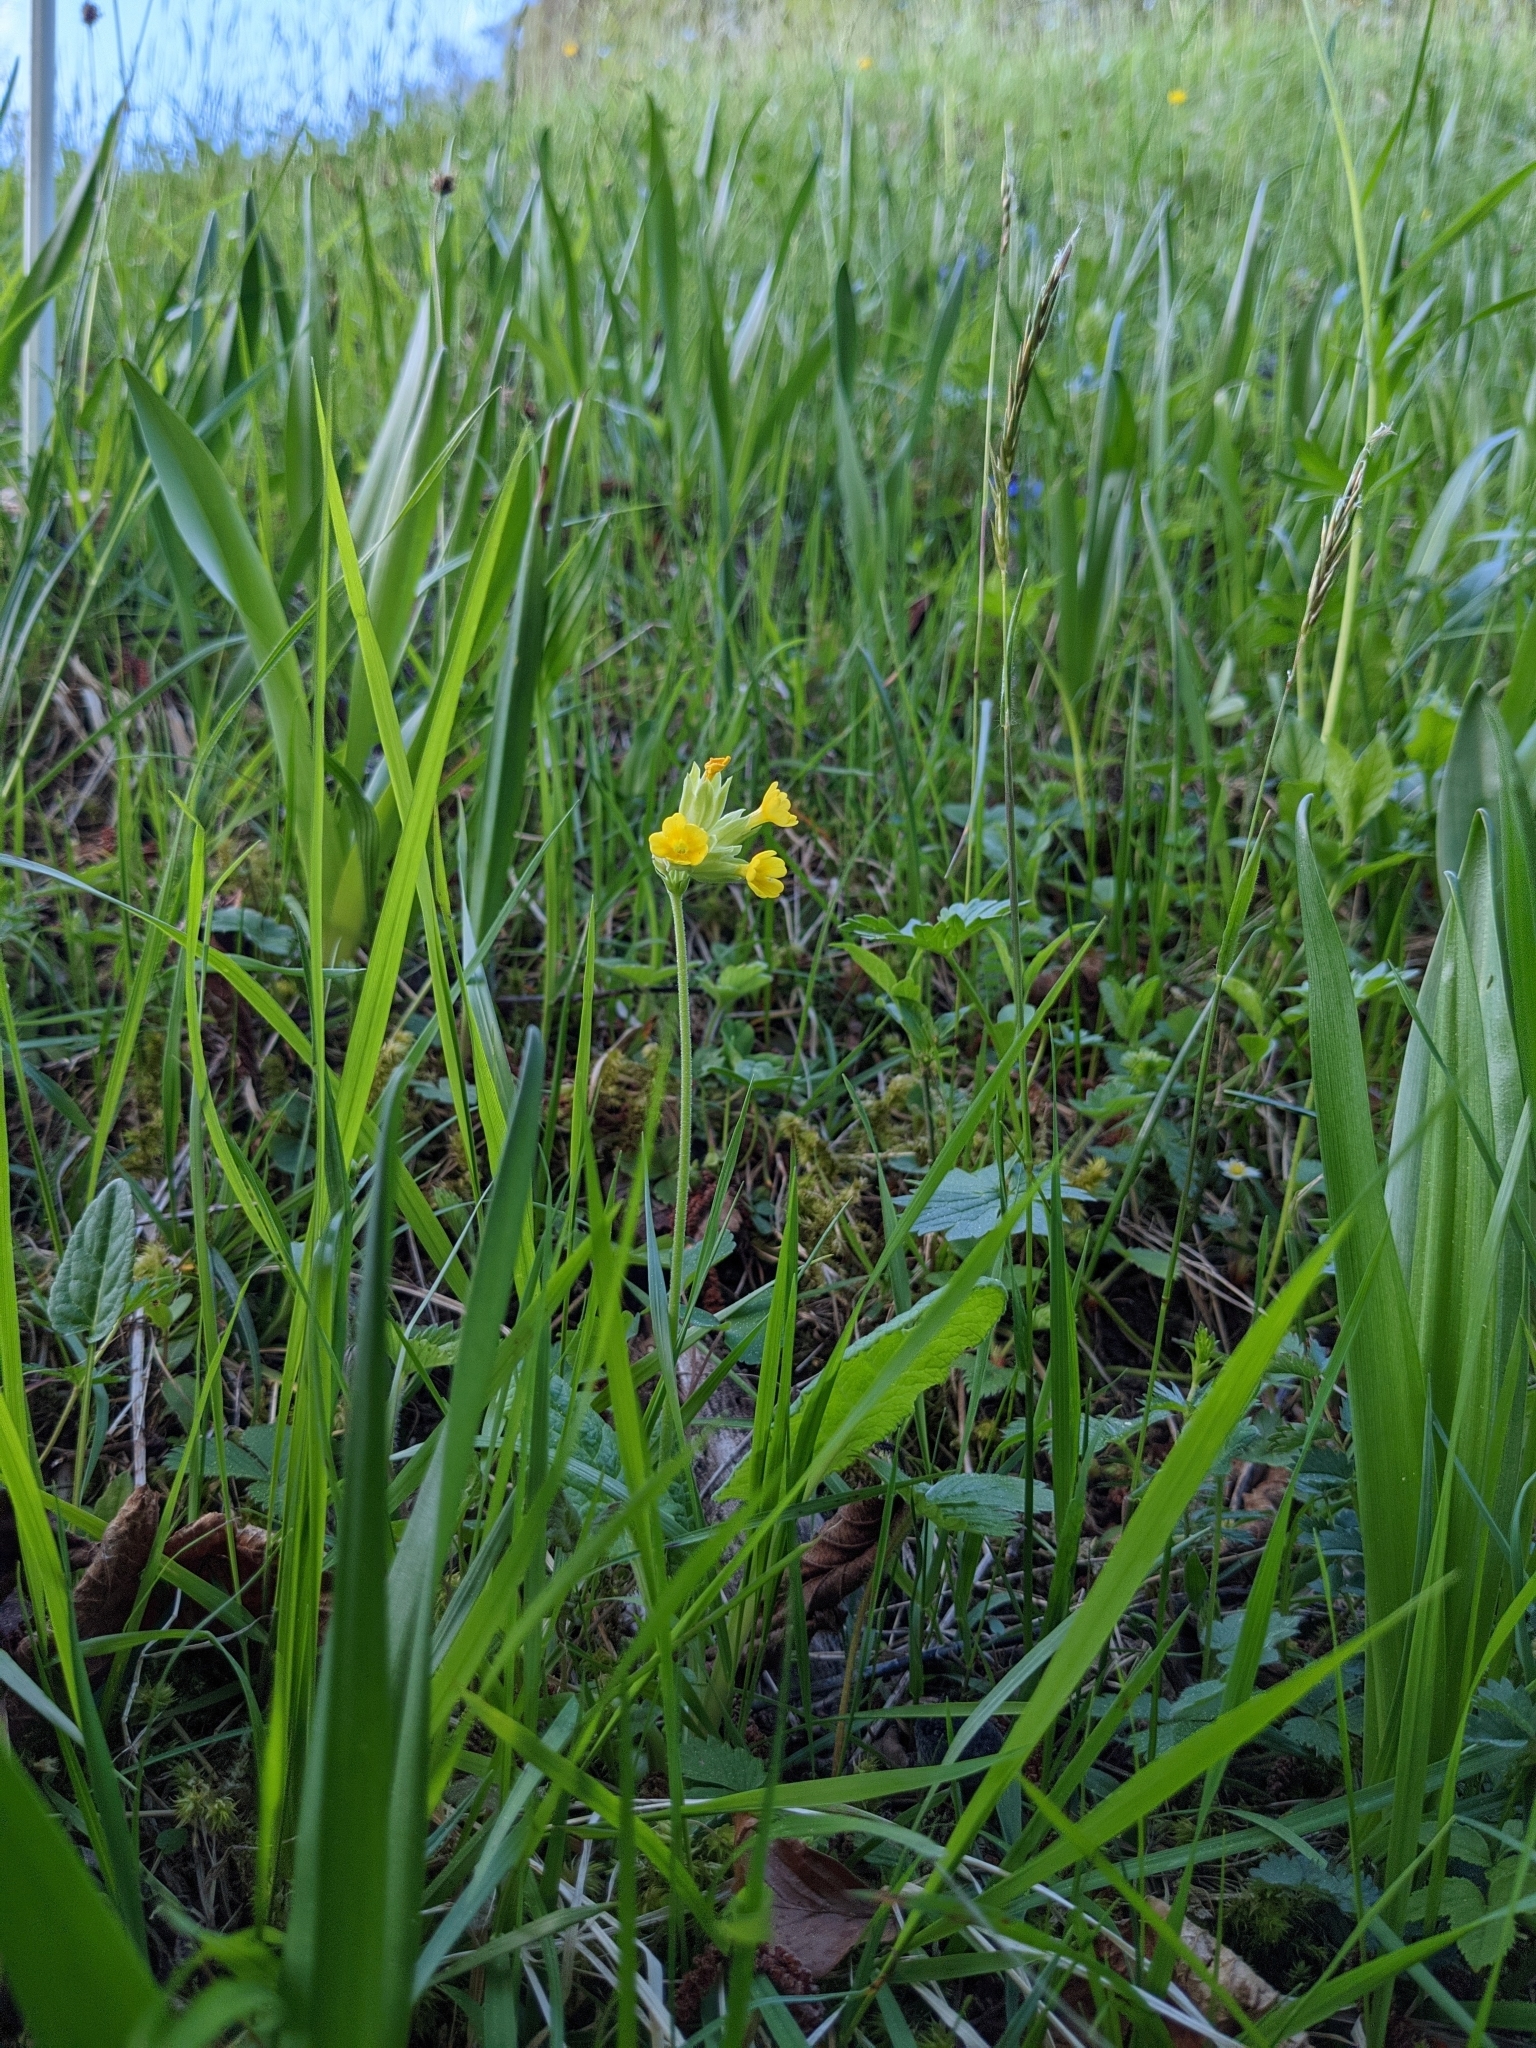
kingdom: Plantae
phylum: Tracheophyta
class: Magnoliopsida
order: Ericales
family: Primulaceae
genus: Primula
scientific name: Primula veris
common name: Cowslip
